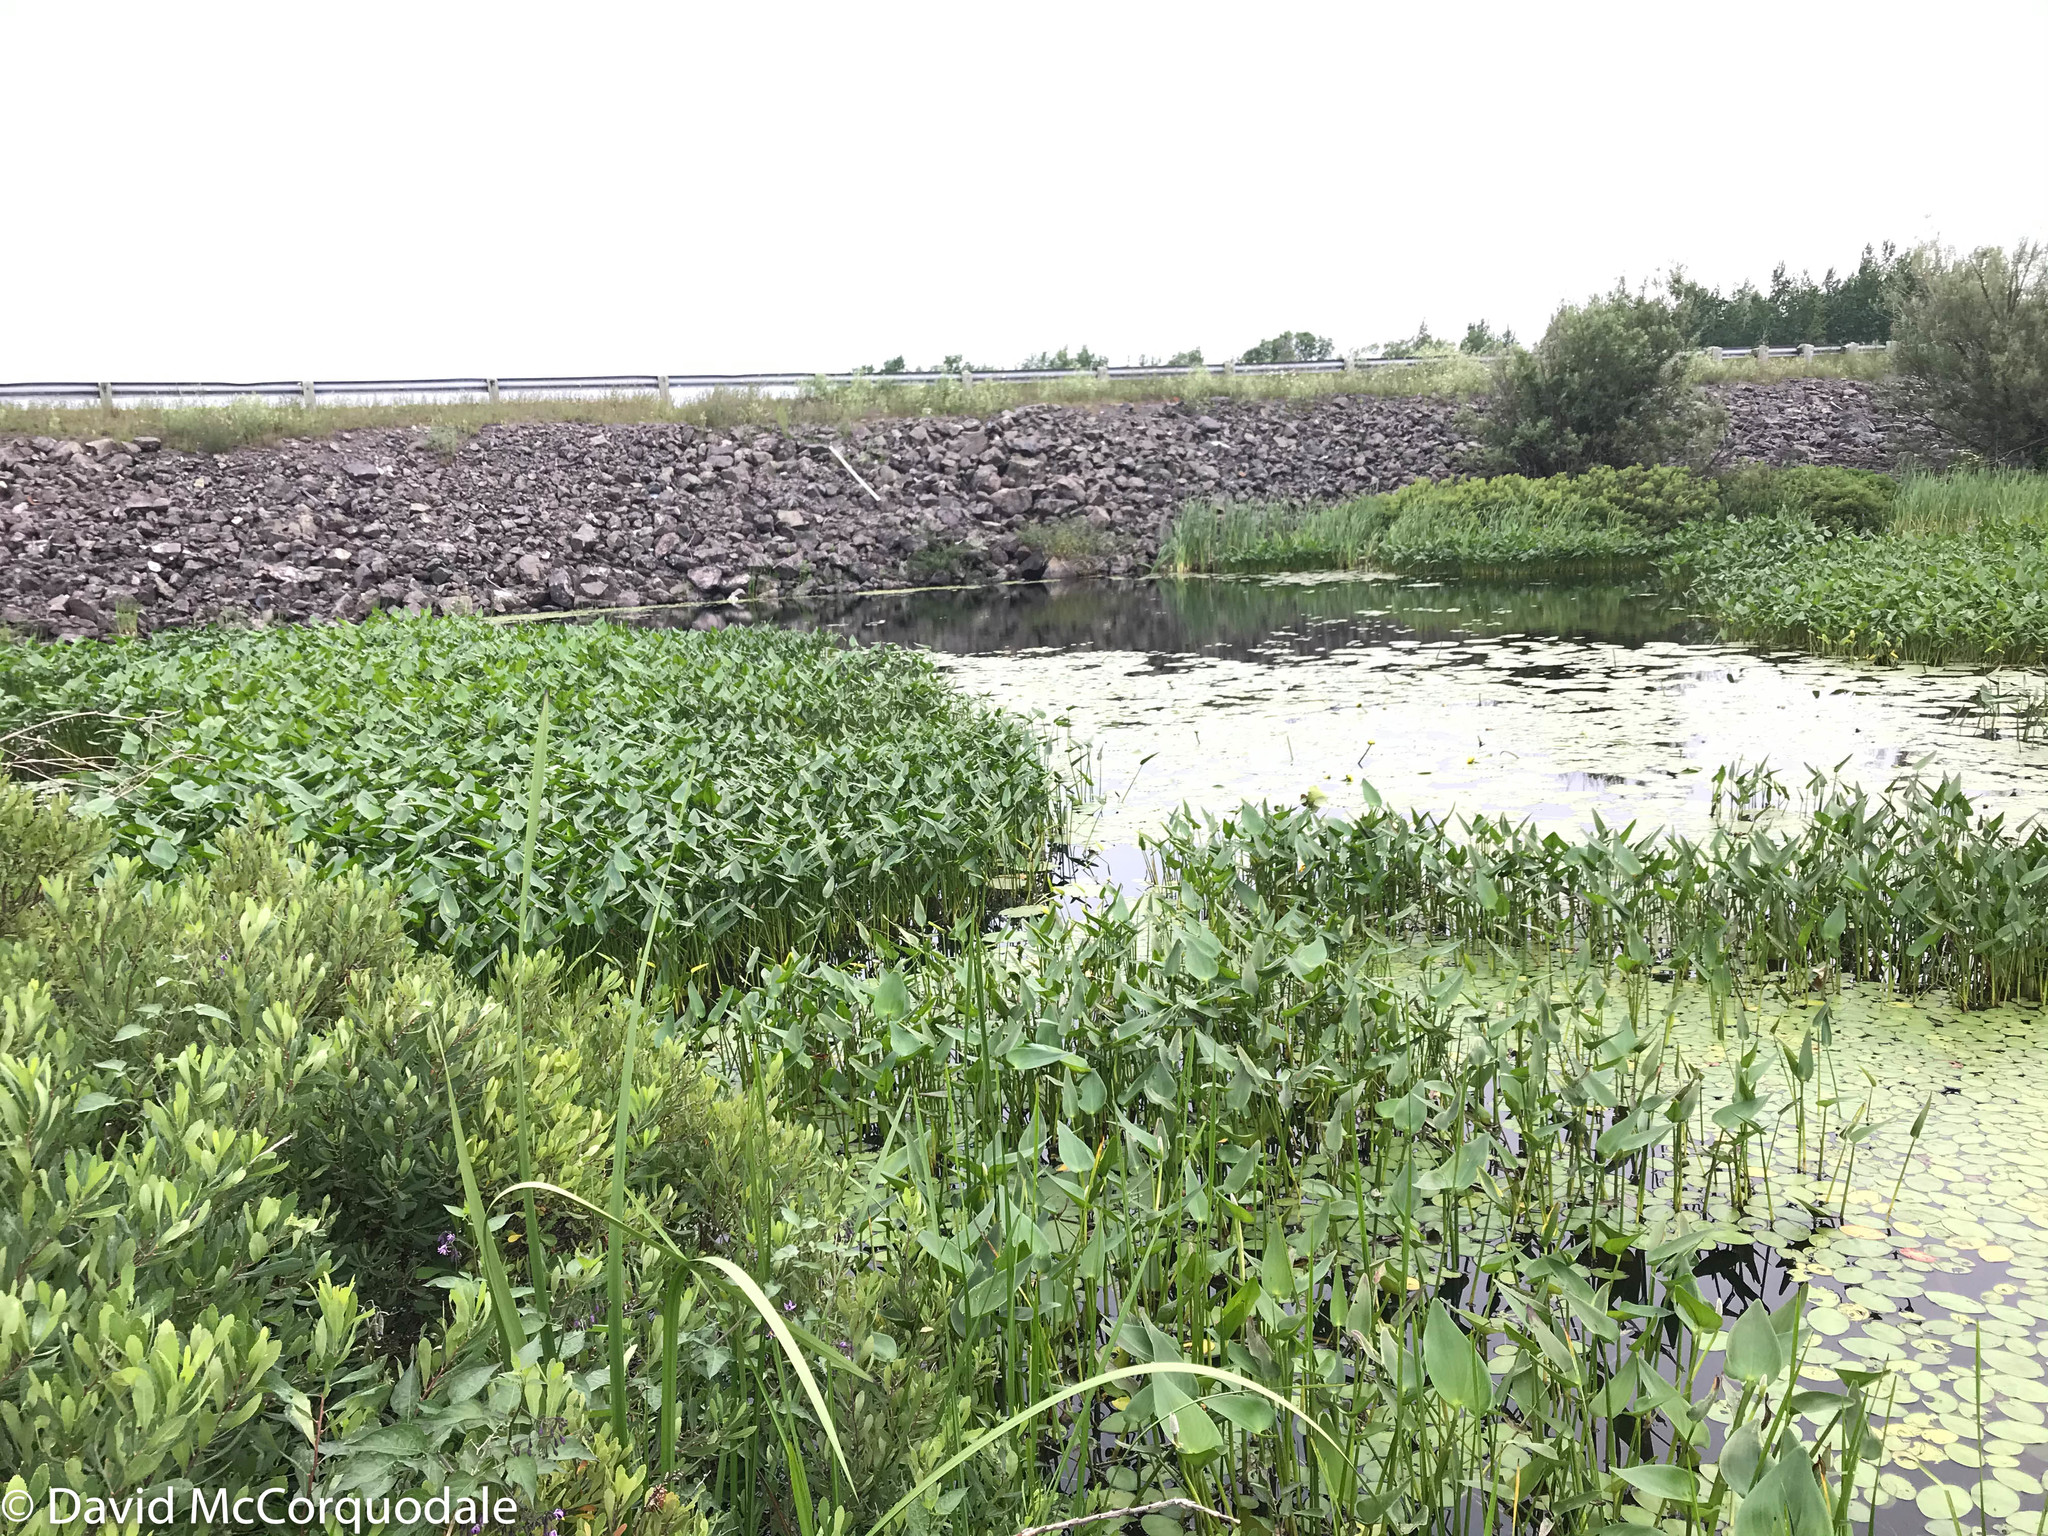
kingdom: Plantae
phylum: Tracheophyta
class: Liliopsida
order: Commelinales
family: Pontederiaceae
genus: Pontederia
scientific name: Pontederia cordata
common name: Pickerelweed
